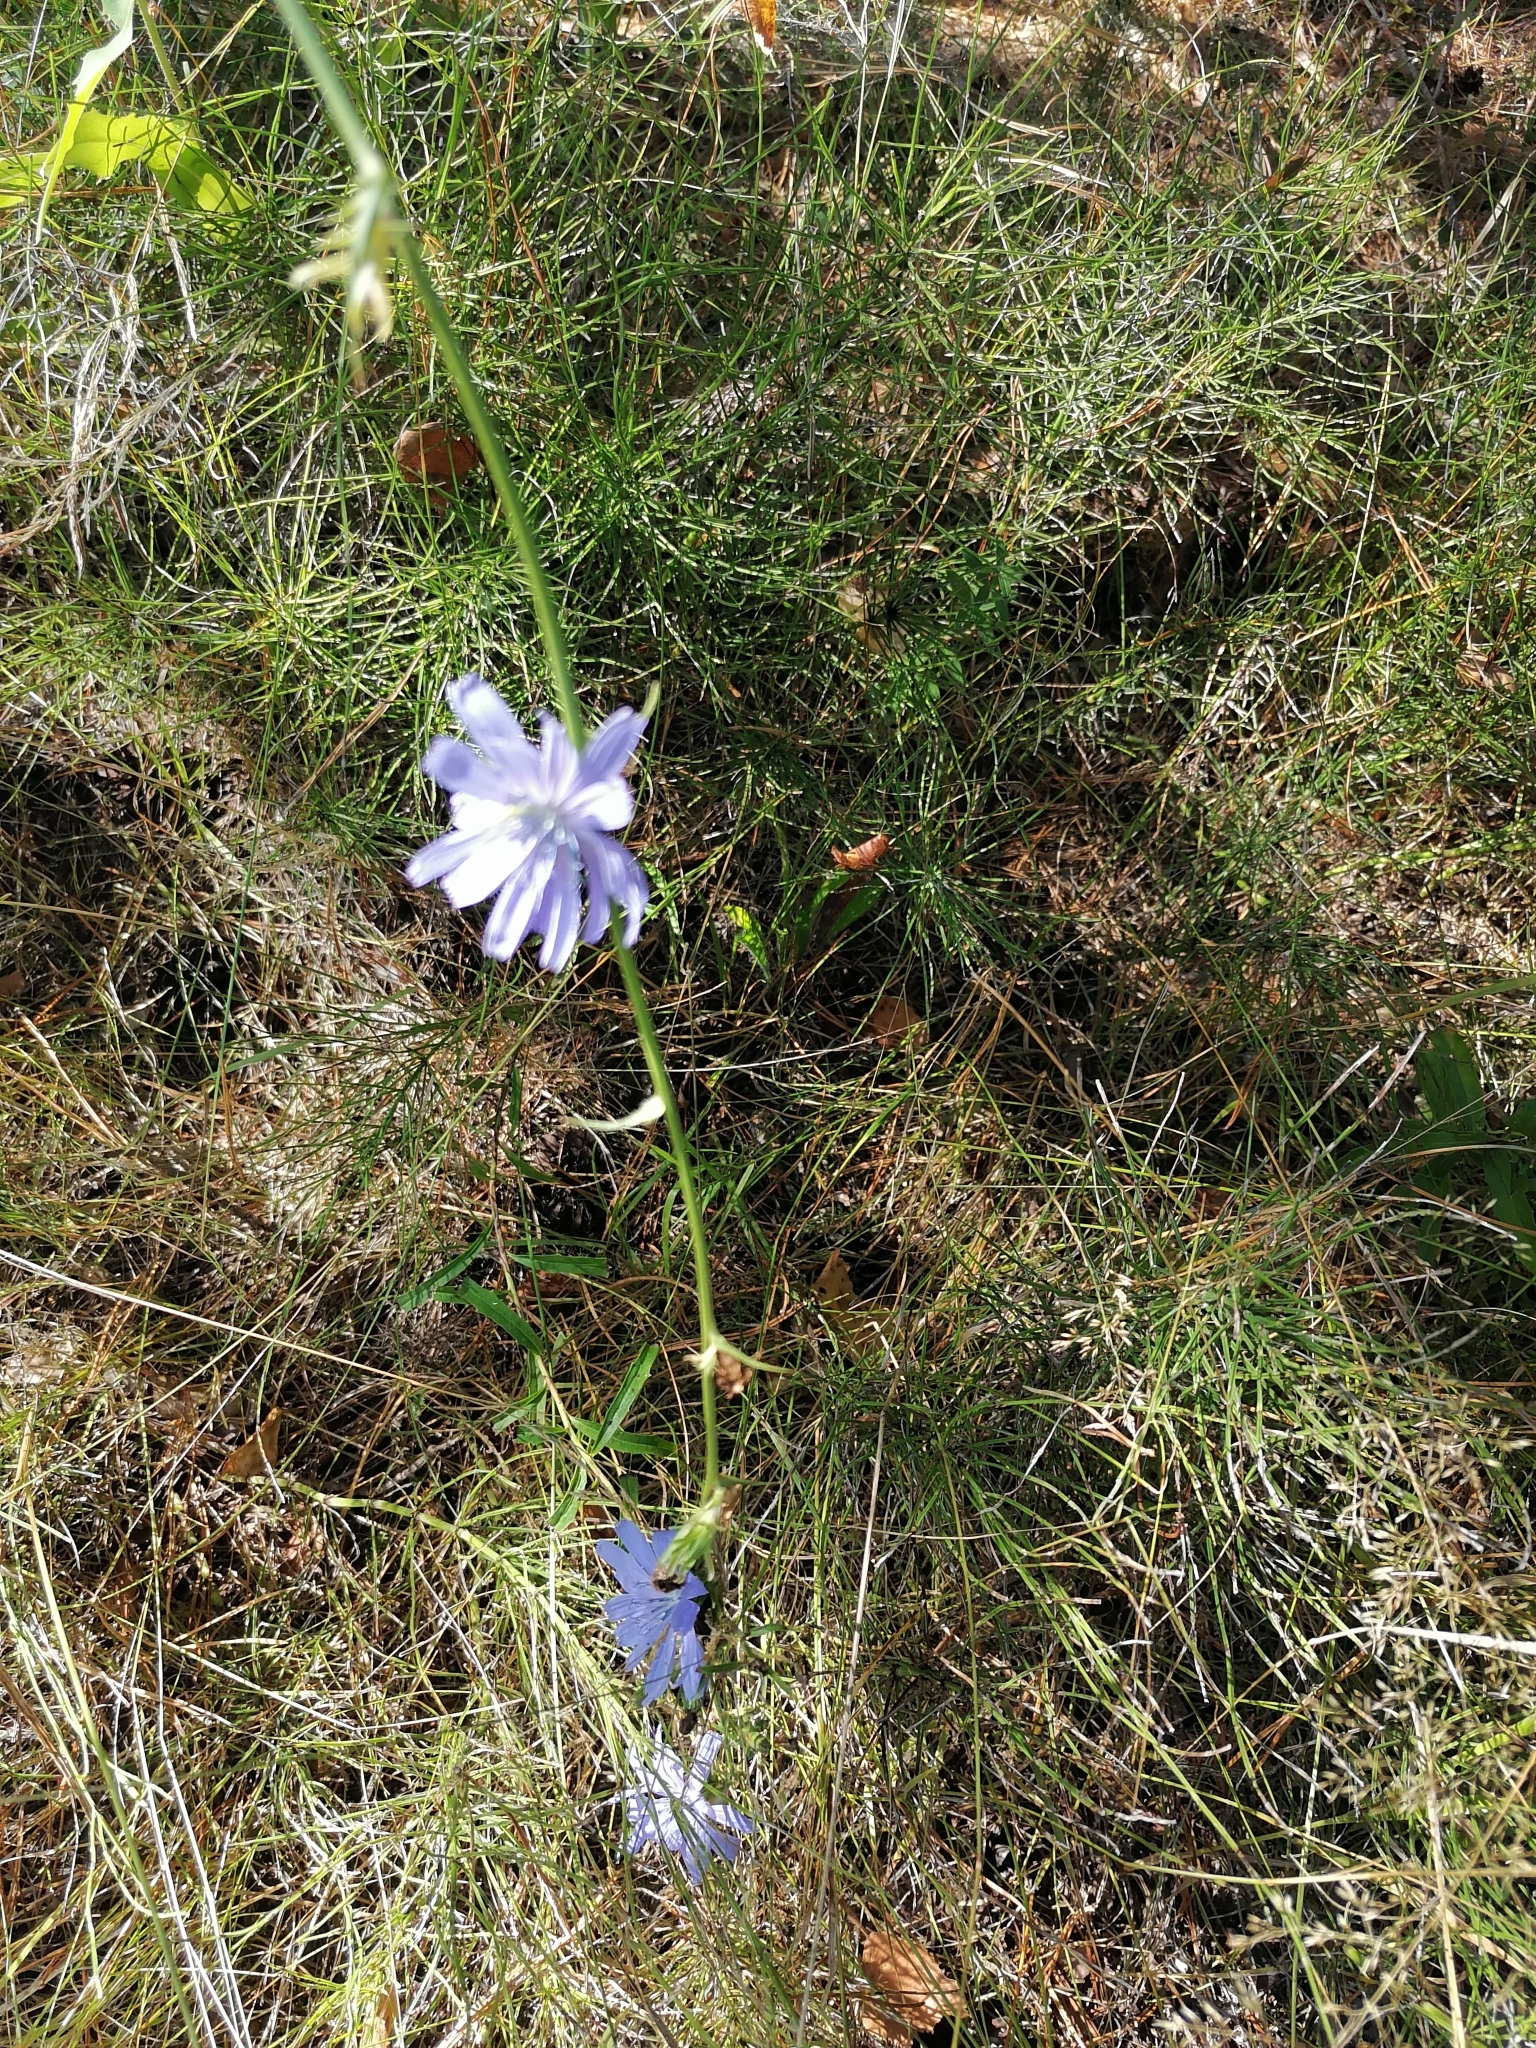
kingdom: Plantae
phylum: Tracheophyta
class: Magnoliopsida
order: Asterales
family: Asteraceae
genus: Cichorium
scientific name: Cichorium intybus
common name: Chicory
